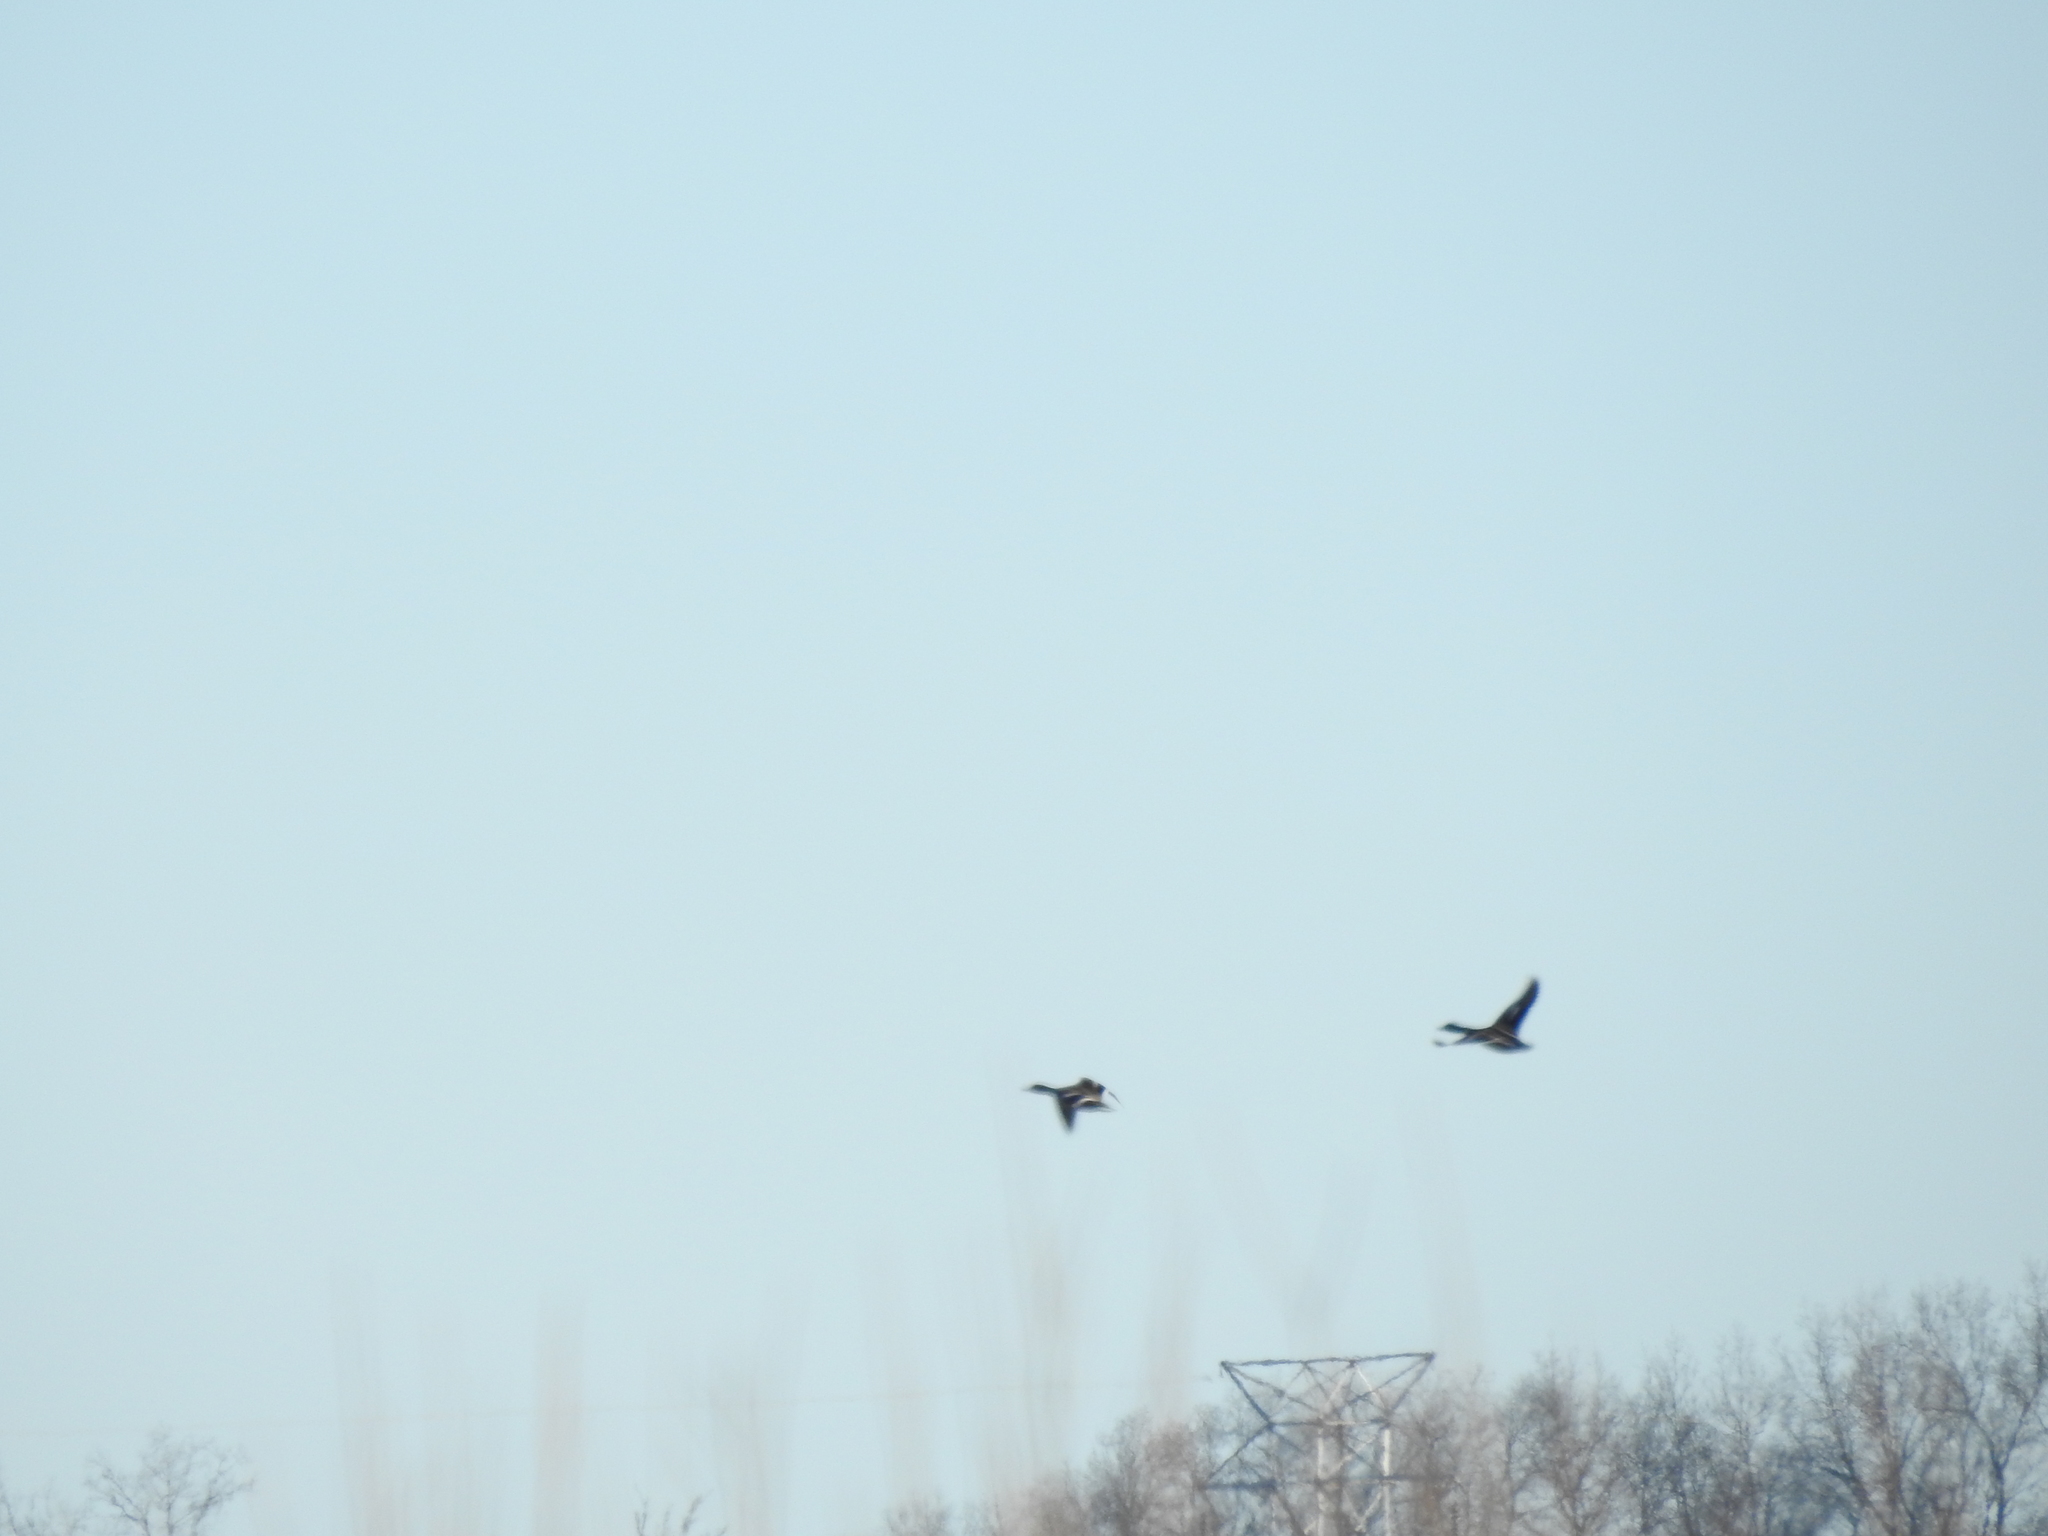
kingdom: Animalia
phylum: Chordata
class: Aves
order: Anseriformes
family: Anatidae
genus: Anas
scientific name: Anas platyrhynchos
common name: Mallard
